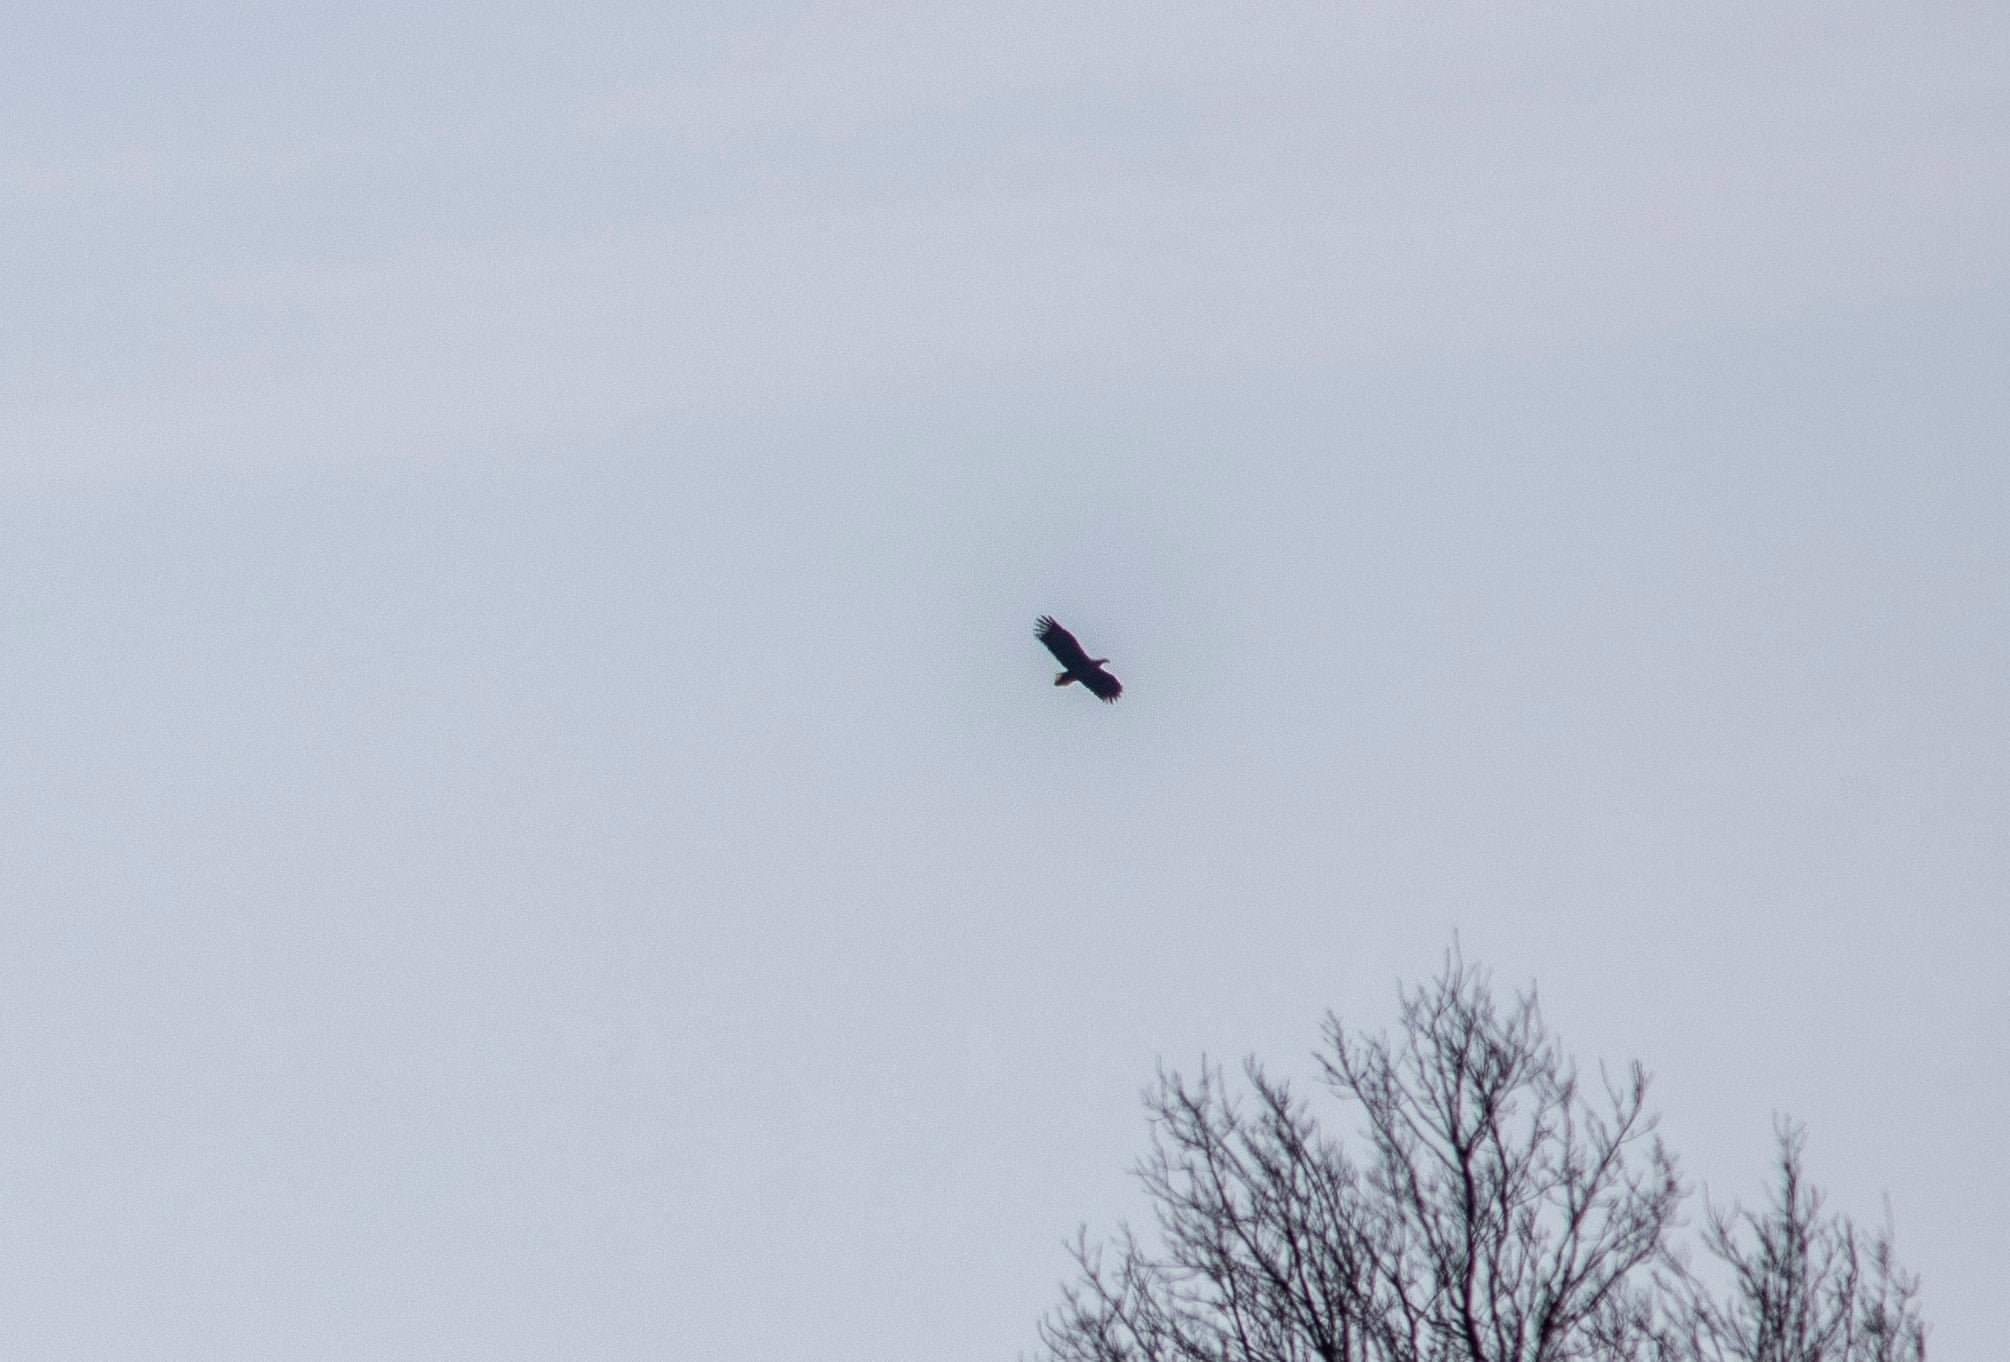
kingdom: Animalia
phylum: Chordata
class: Aves
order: Accipitriformes
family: Accipitridae
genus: Haliaeetus
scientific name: Haliaeetus albicilla
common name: White-tailed eagle
